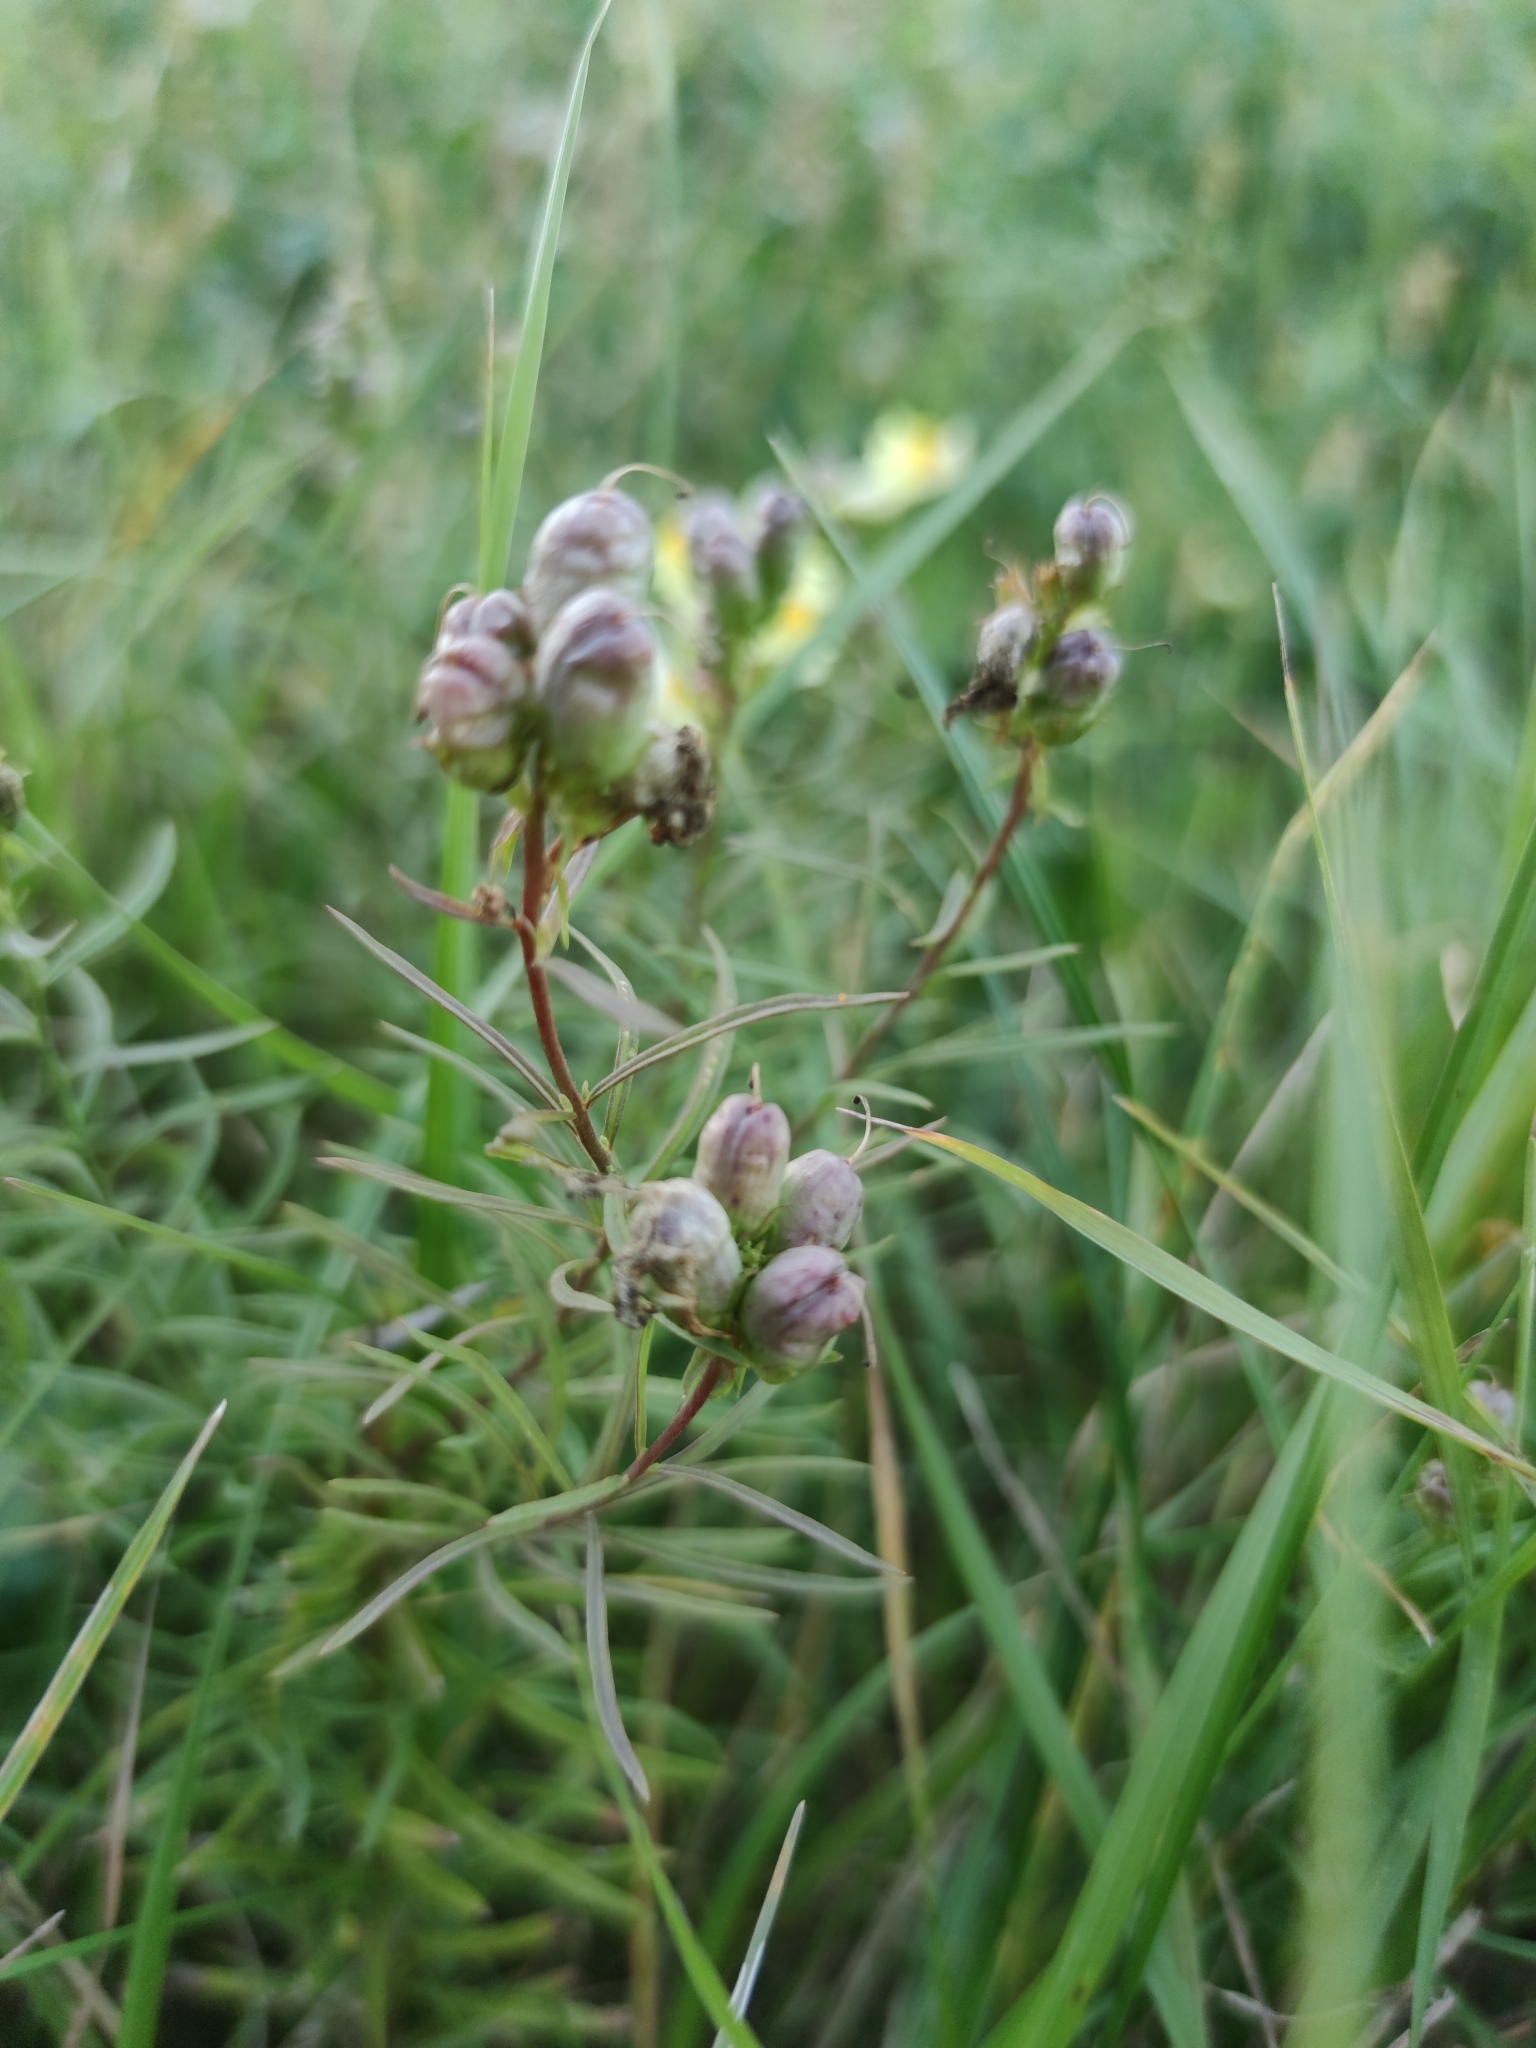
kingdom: Plantae
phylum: Tracheophyta
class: Magnoliopsida
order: Lamiales
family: Plantaginaceae
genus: Linaria
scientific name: Linaria vulgaris
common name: Butter and eggs
